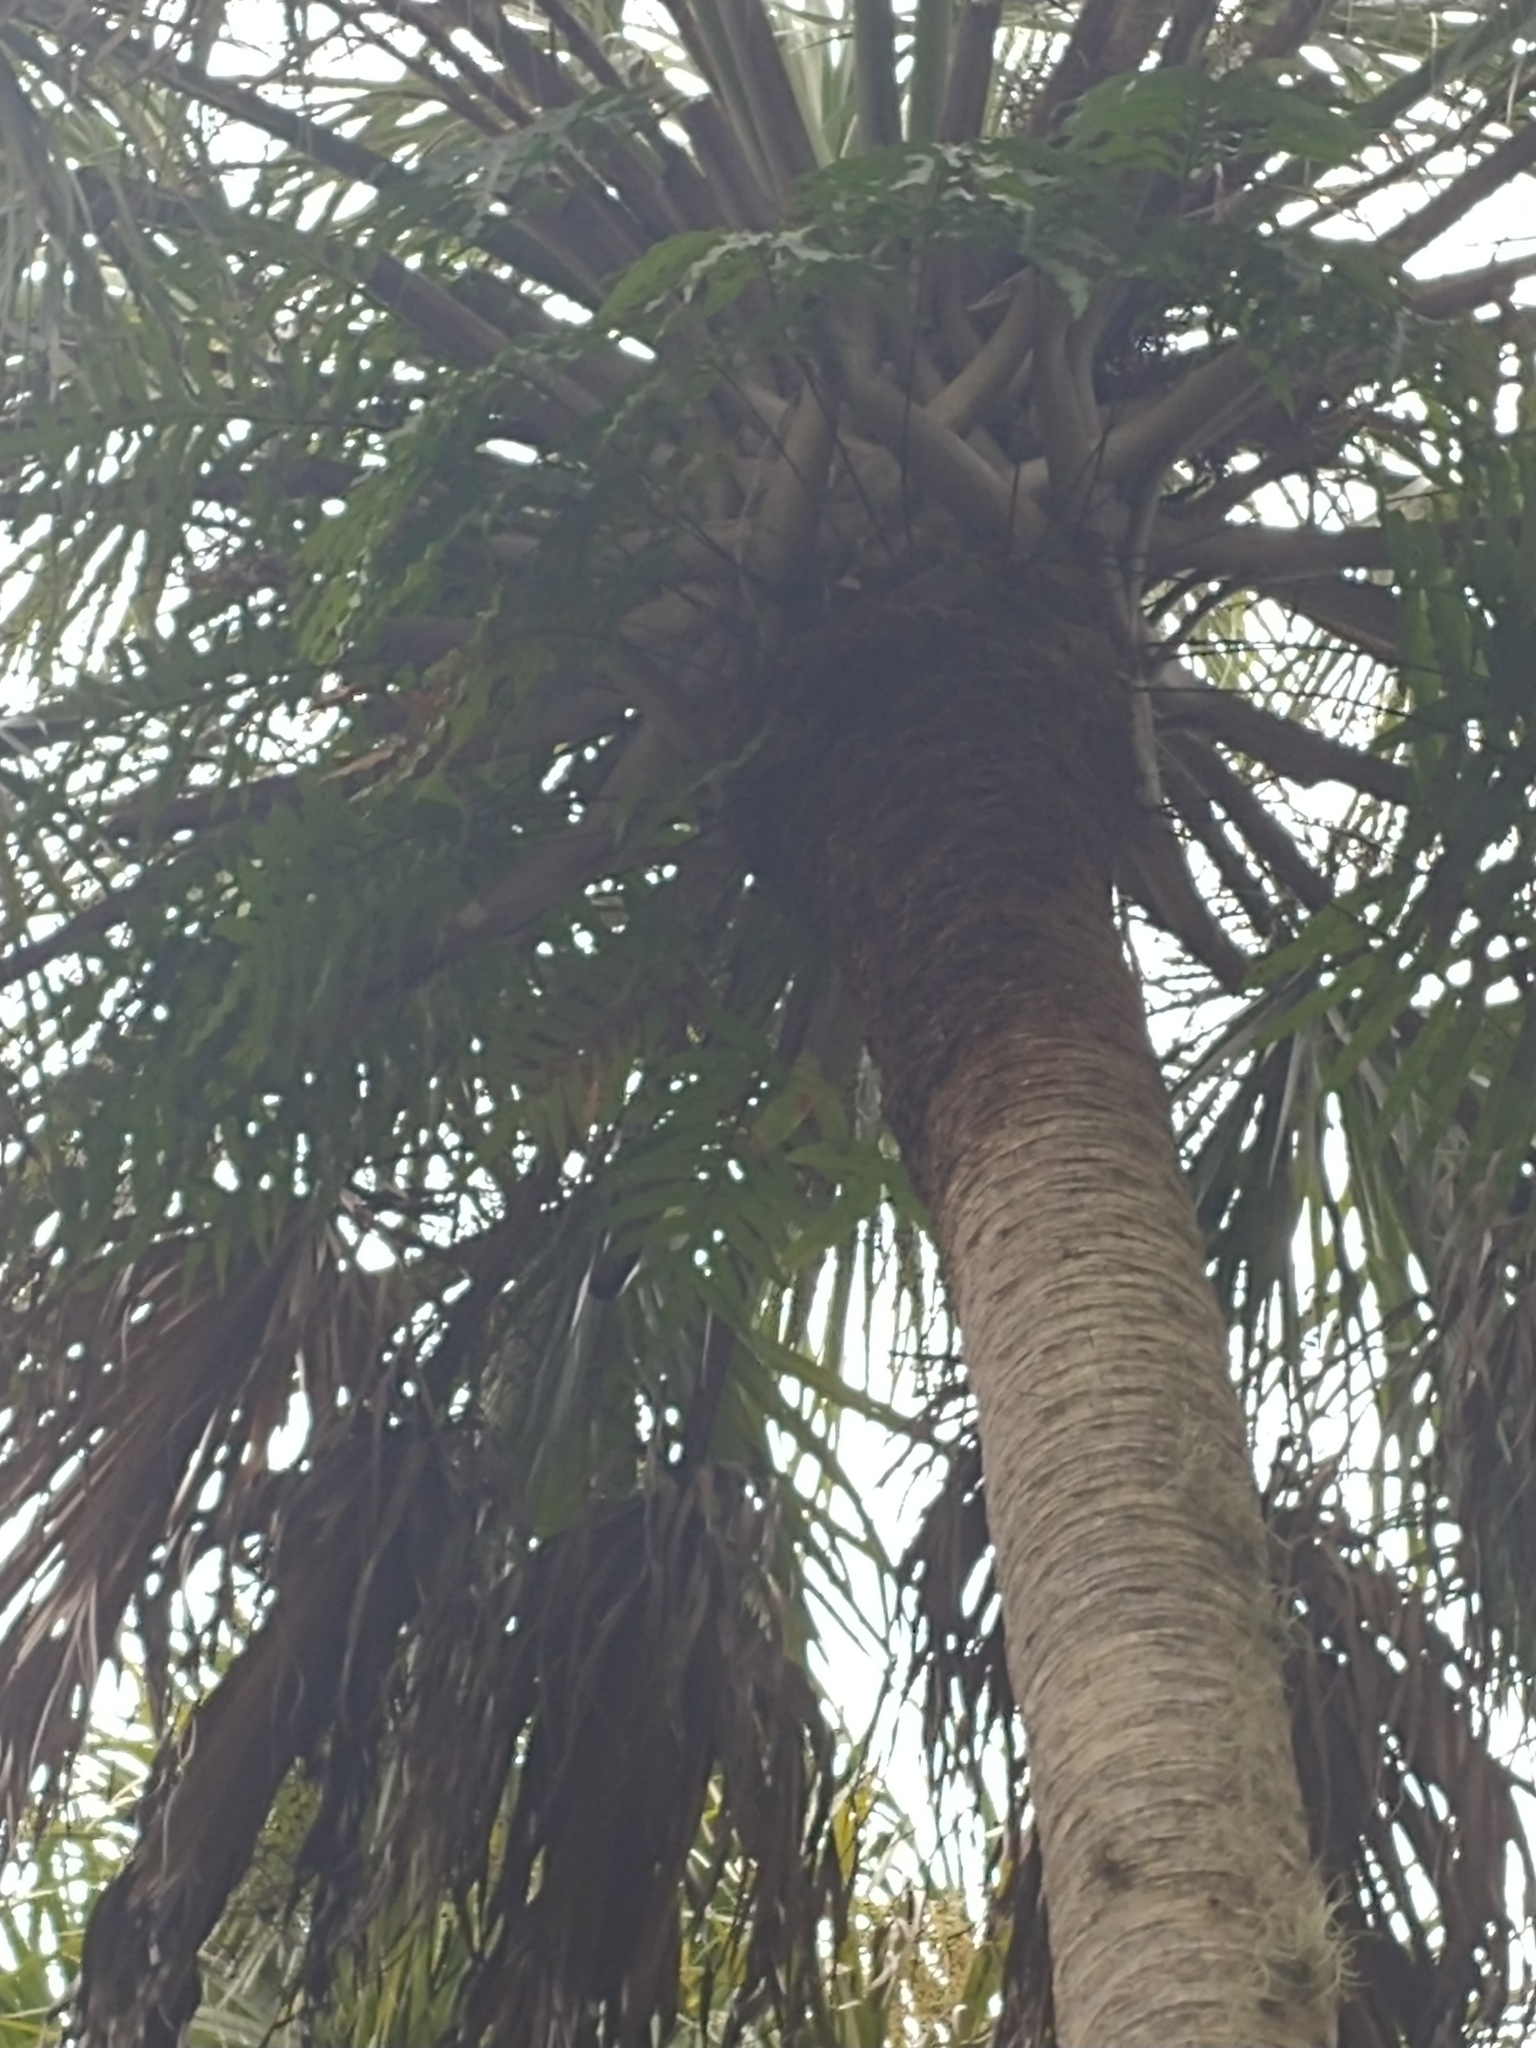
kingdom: Plantae
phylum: Tracheophyta
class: Liliopsida
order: Arecales
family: Arecaceae
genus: Sabal
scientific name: Sabal palmetto
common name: Blue palmetto
